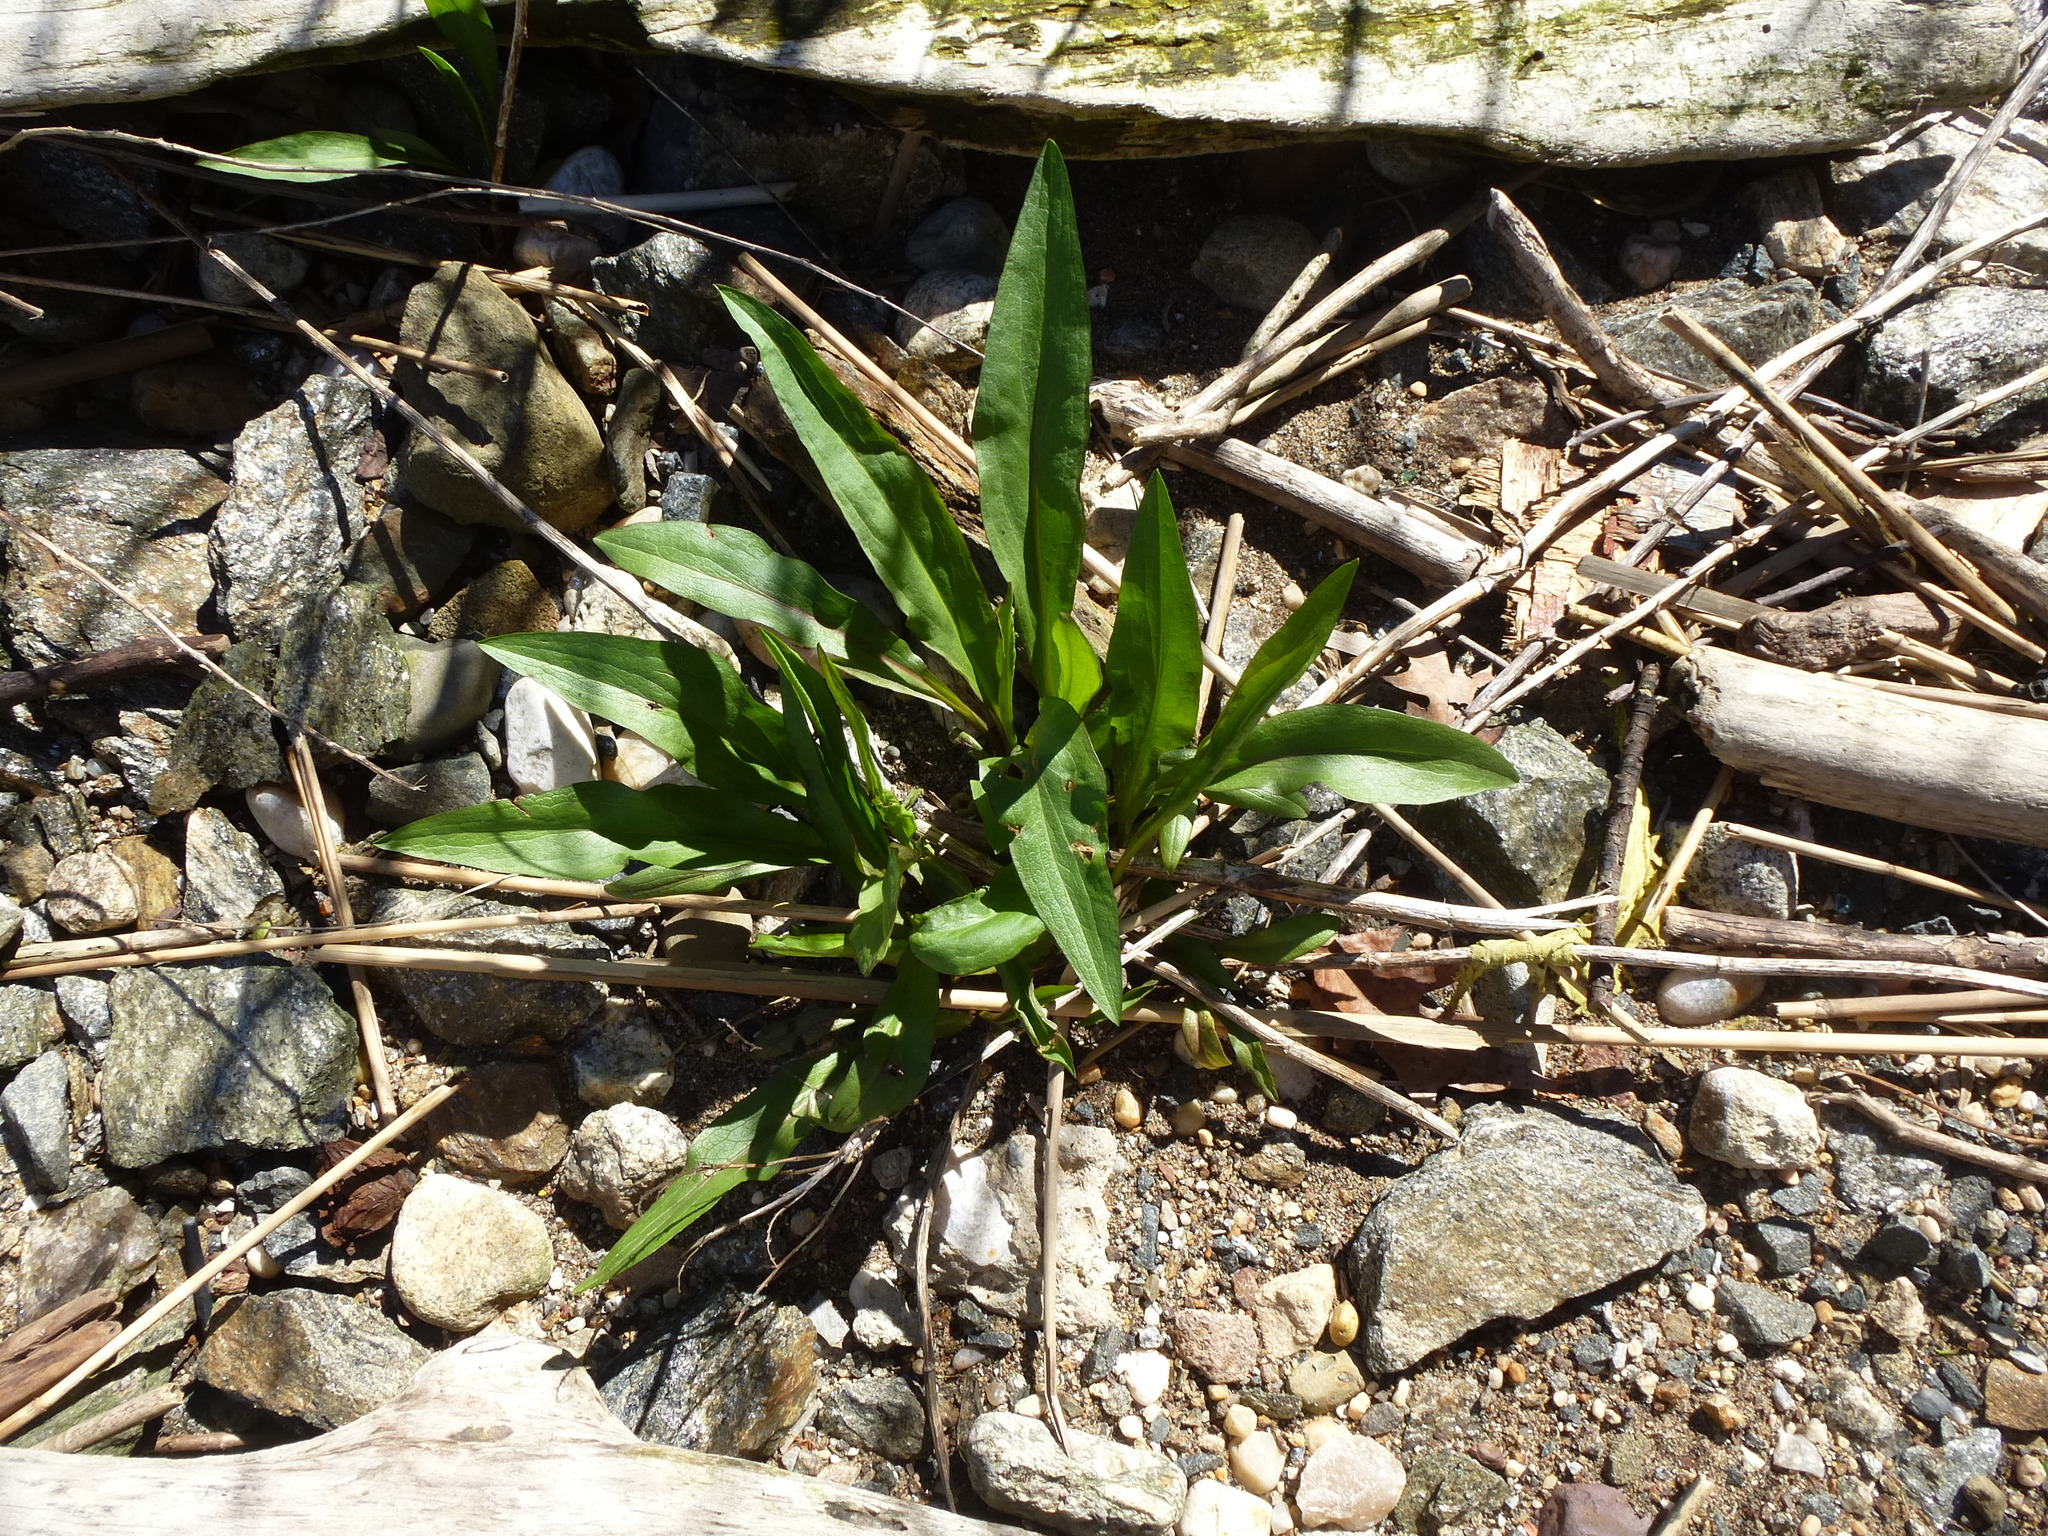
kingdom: Plantae
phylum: Tracheophyta
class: Magnoliopsida
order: Asterales
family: Asteraceae
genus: Solidago
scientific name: Solidago sempervirens
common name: Salt-marsh goldenrod
